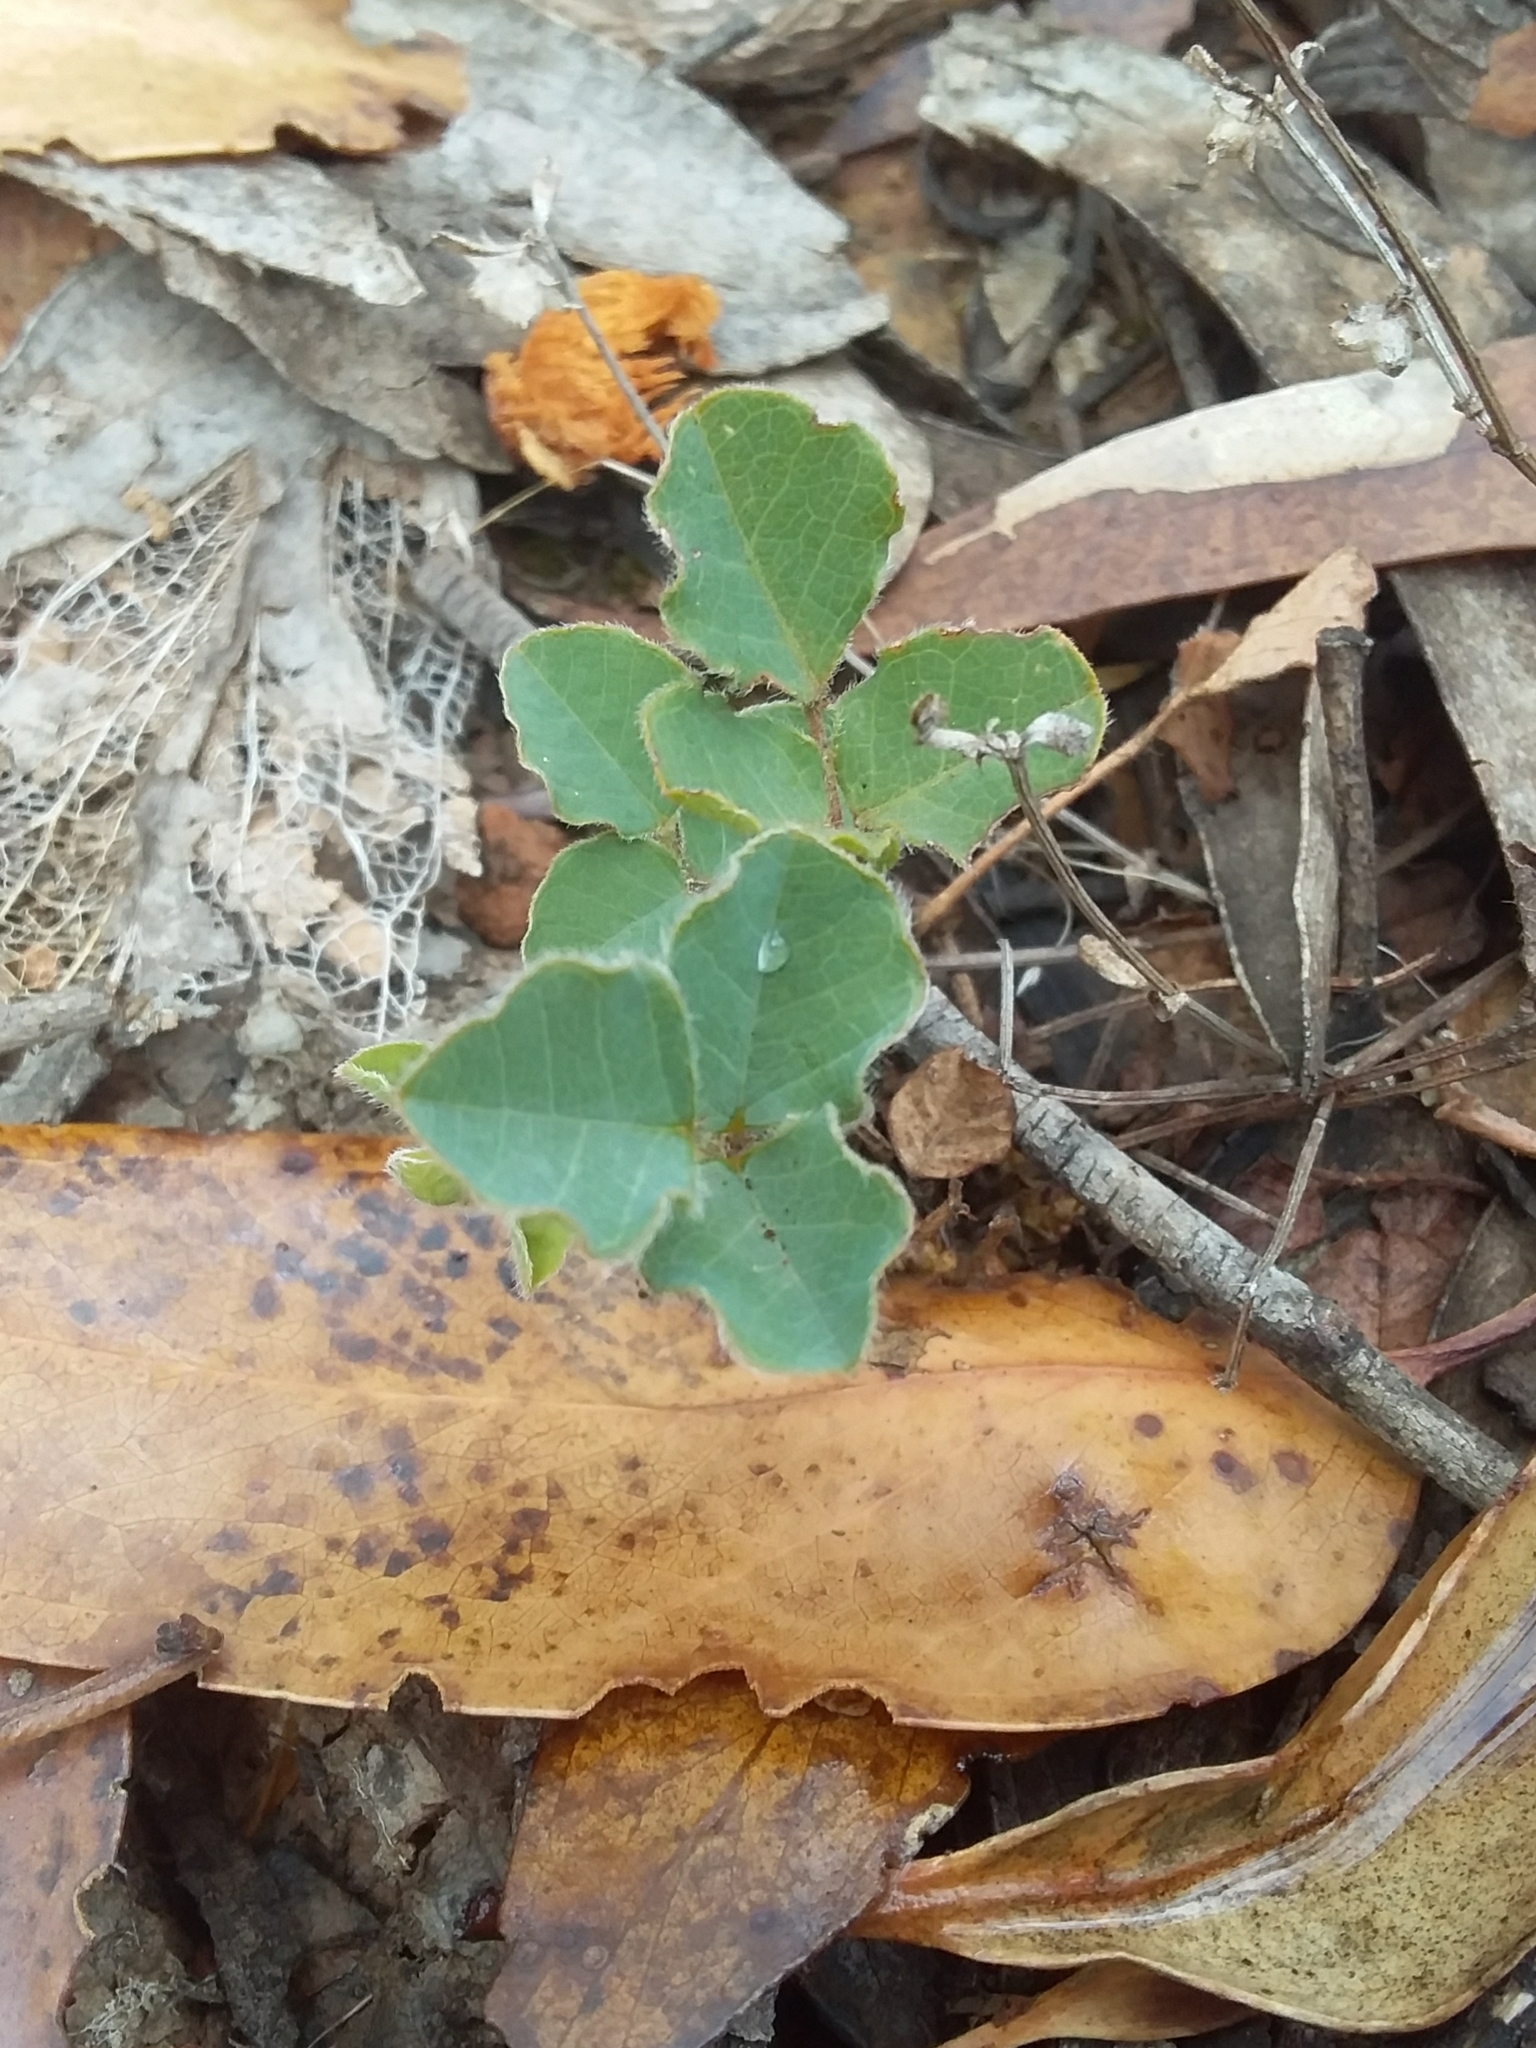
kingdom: Plantae
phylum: Tracheophyta
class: Magnoliopsida
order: Fabales
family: Fabaceae
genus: Kennedia
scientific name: Kennedia prostrata
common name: Running-postman
